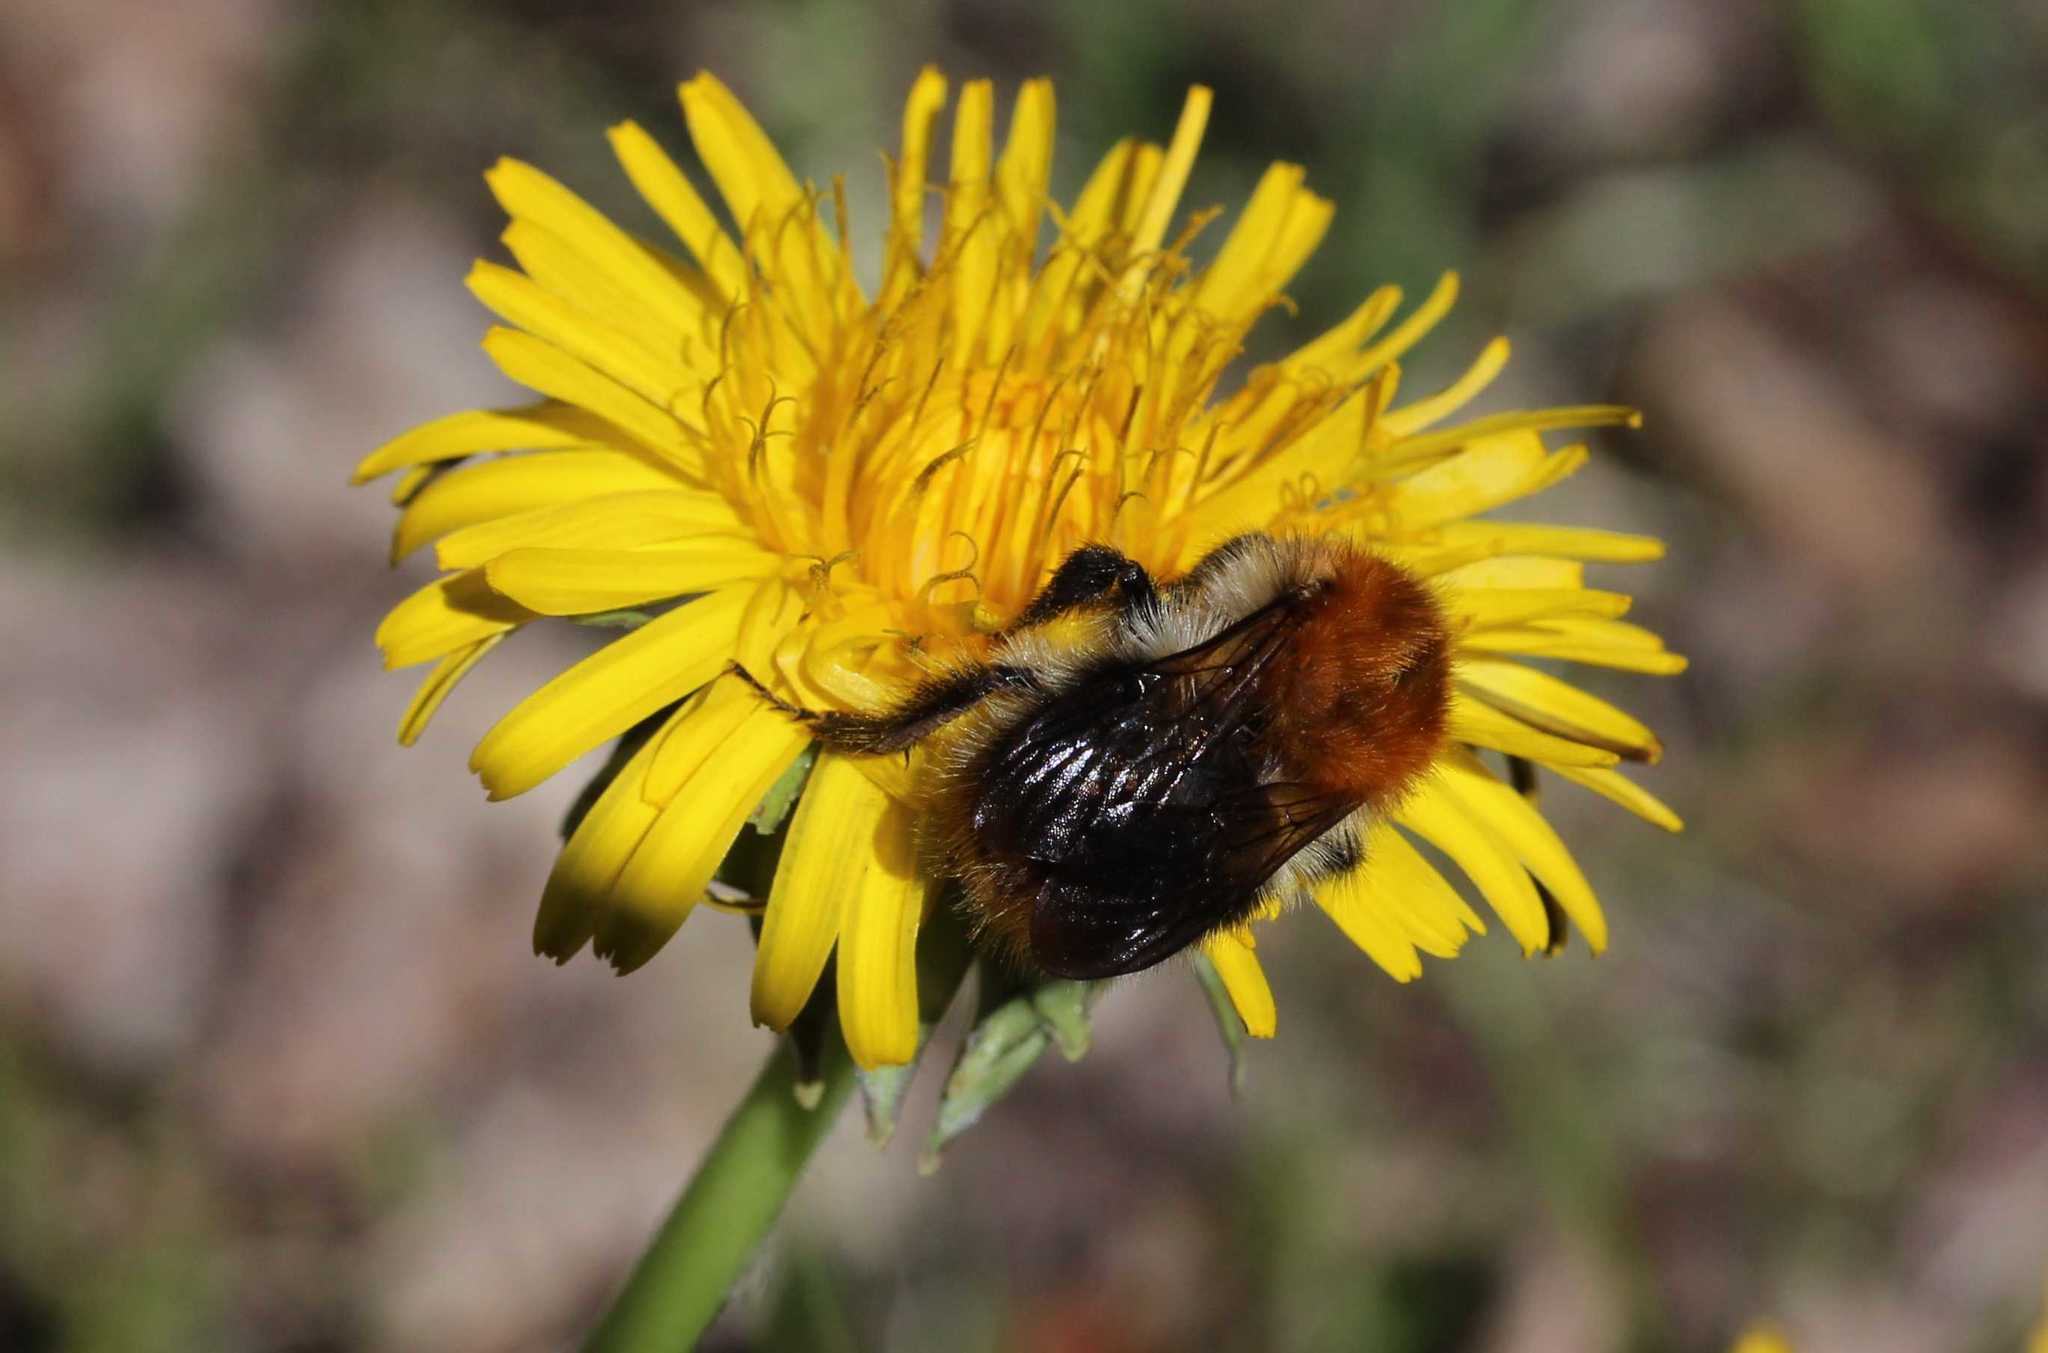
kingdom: Plantae
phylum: Tracheophyta
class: Magnoliopsida
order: Asterales
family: Asteraceae
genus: Taraxacum
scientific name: Taraxacum
